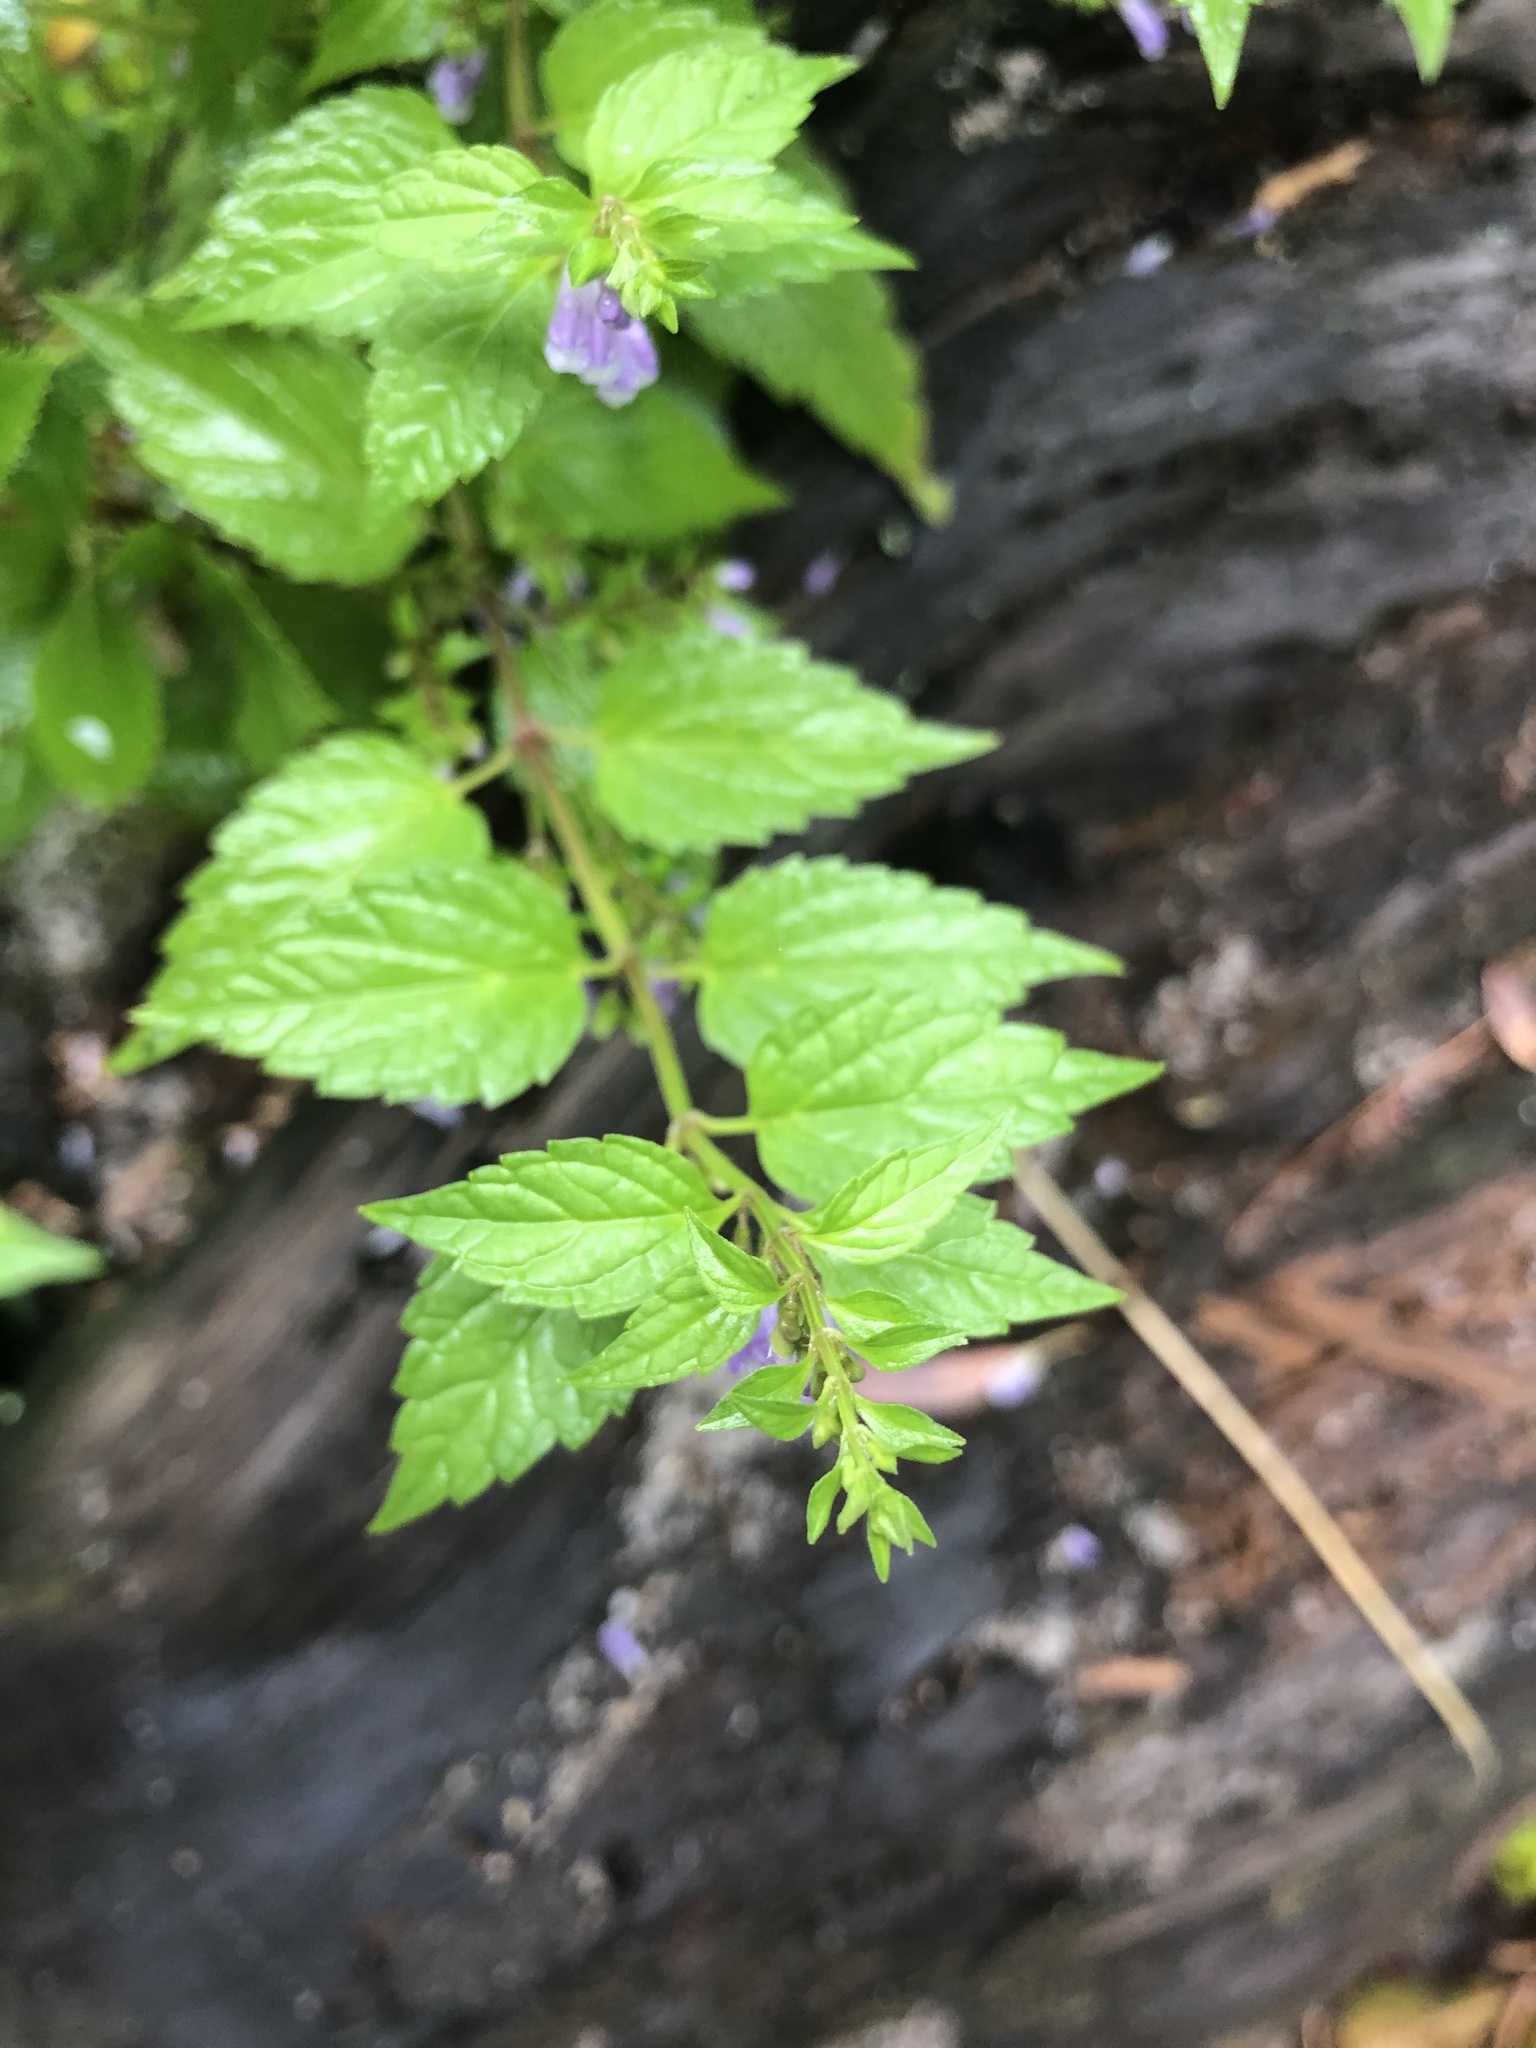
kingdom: Plantae
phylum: Tracheophyta
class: Magnoliopsida
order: Lamiales
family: Lamiaceae
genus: Scutellaria
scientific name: Scutellaria lateriflora
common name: Blue skullcap
